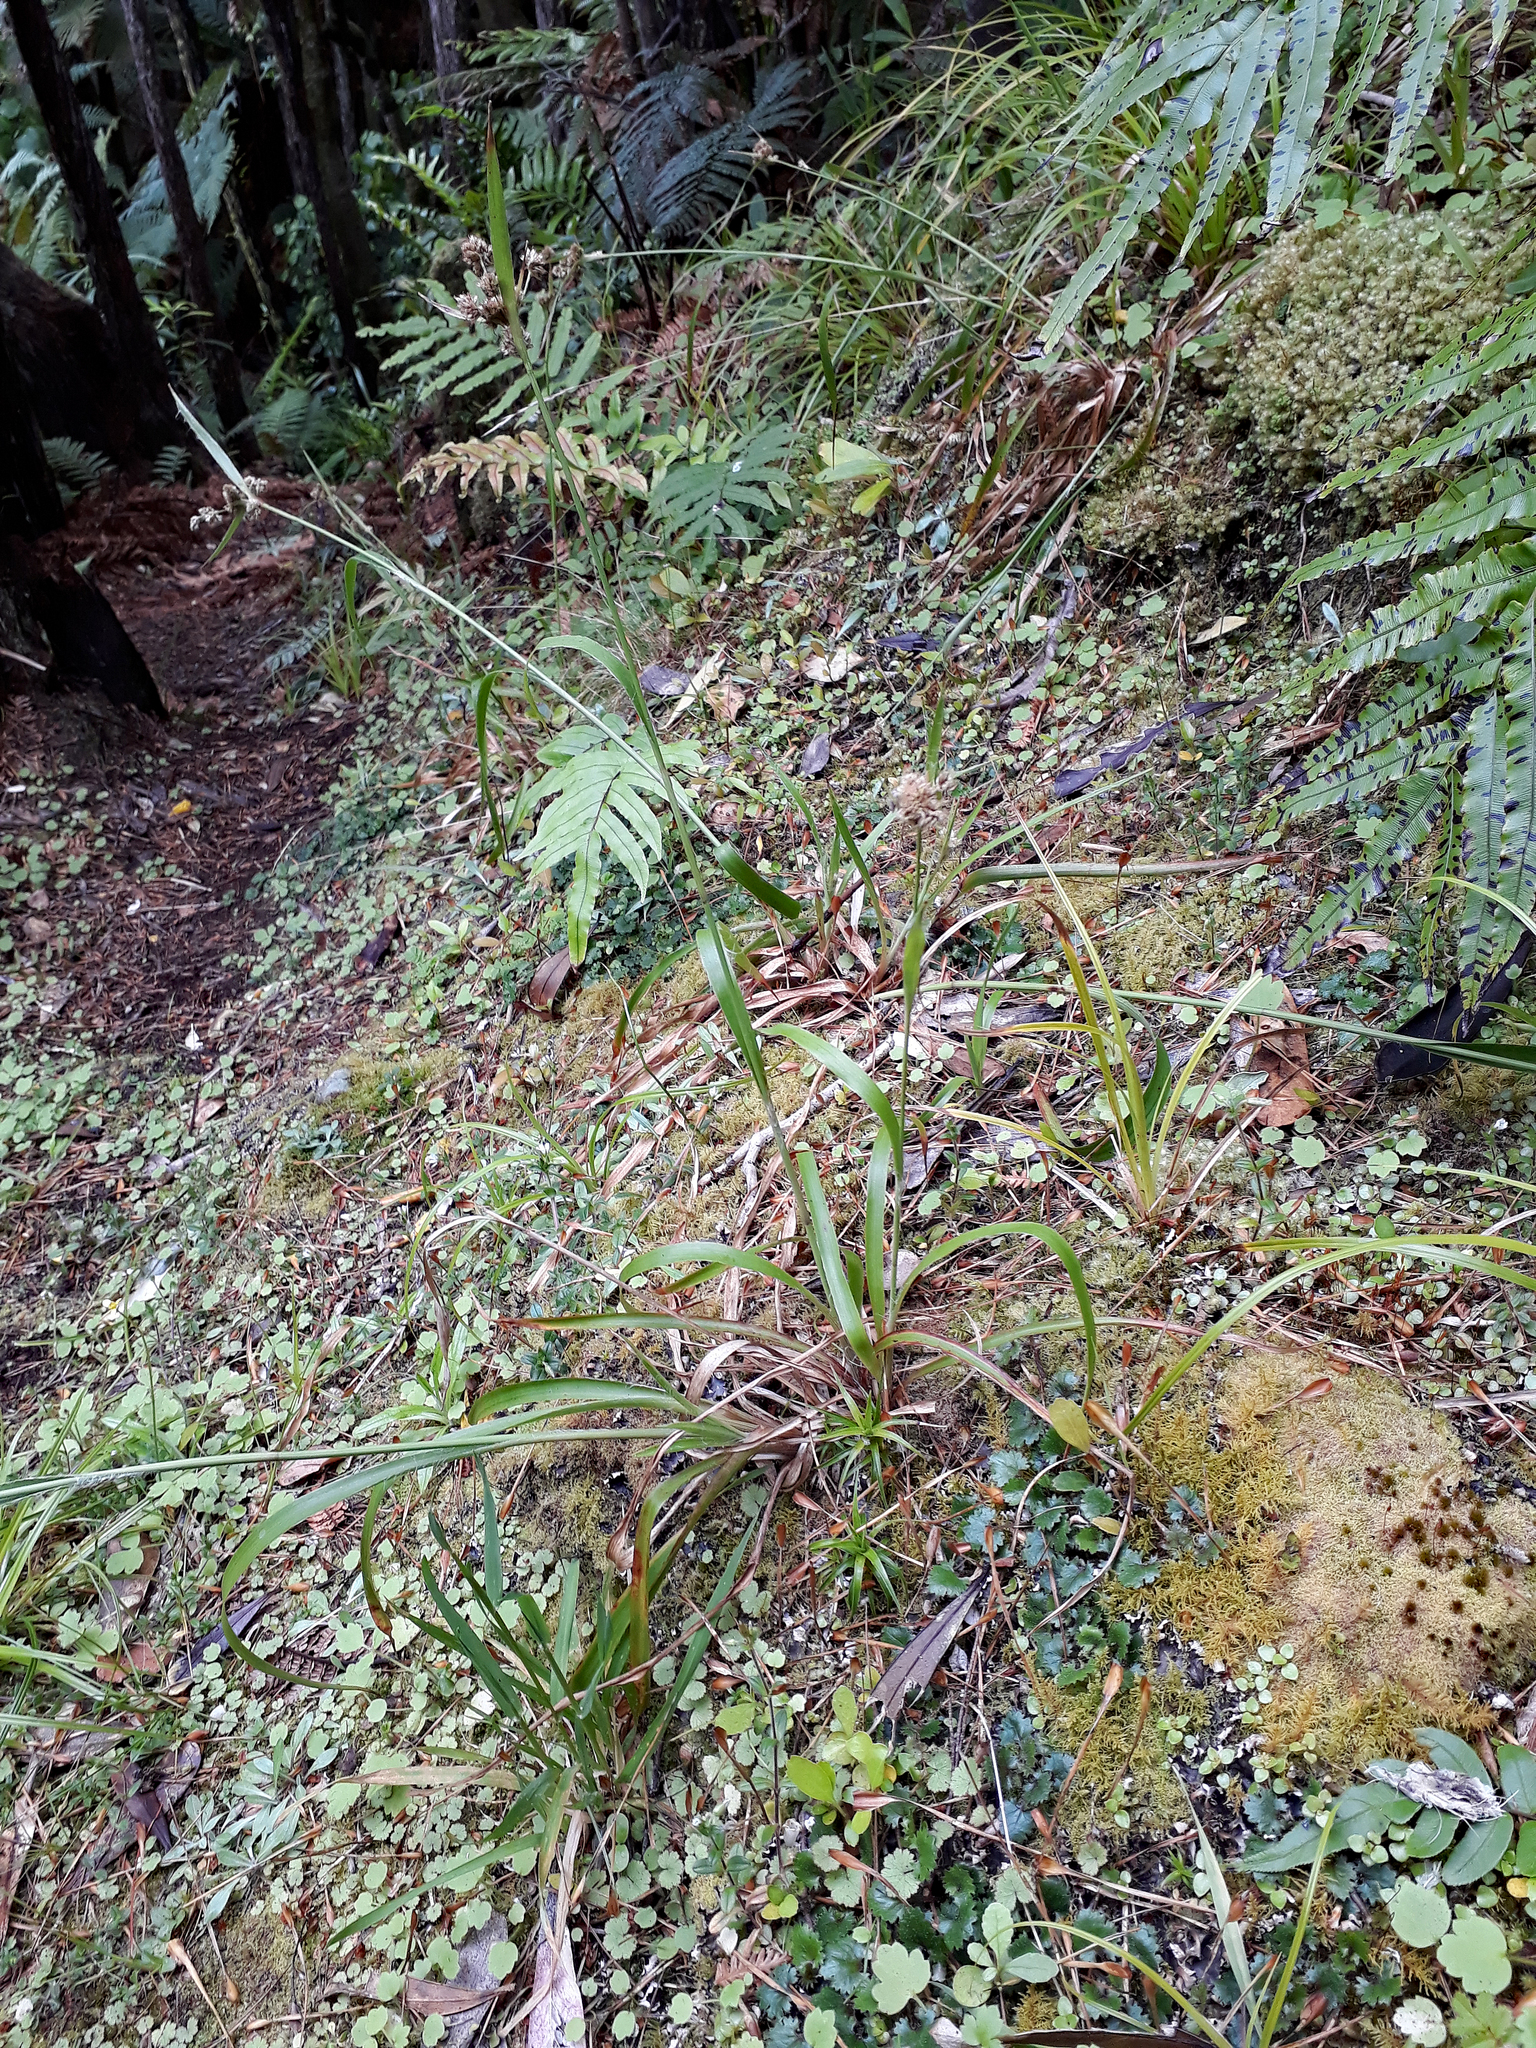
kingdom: Plantae
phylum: Tracheophyta
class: Liliopsida
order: Poales
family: Juncaceae
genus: Luzula
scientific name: Luzula banksiana
